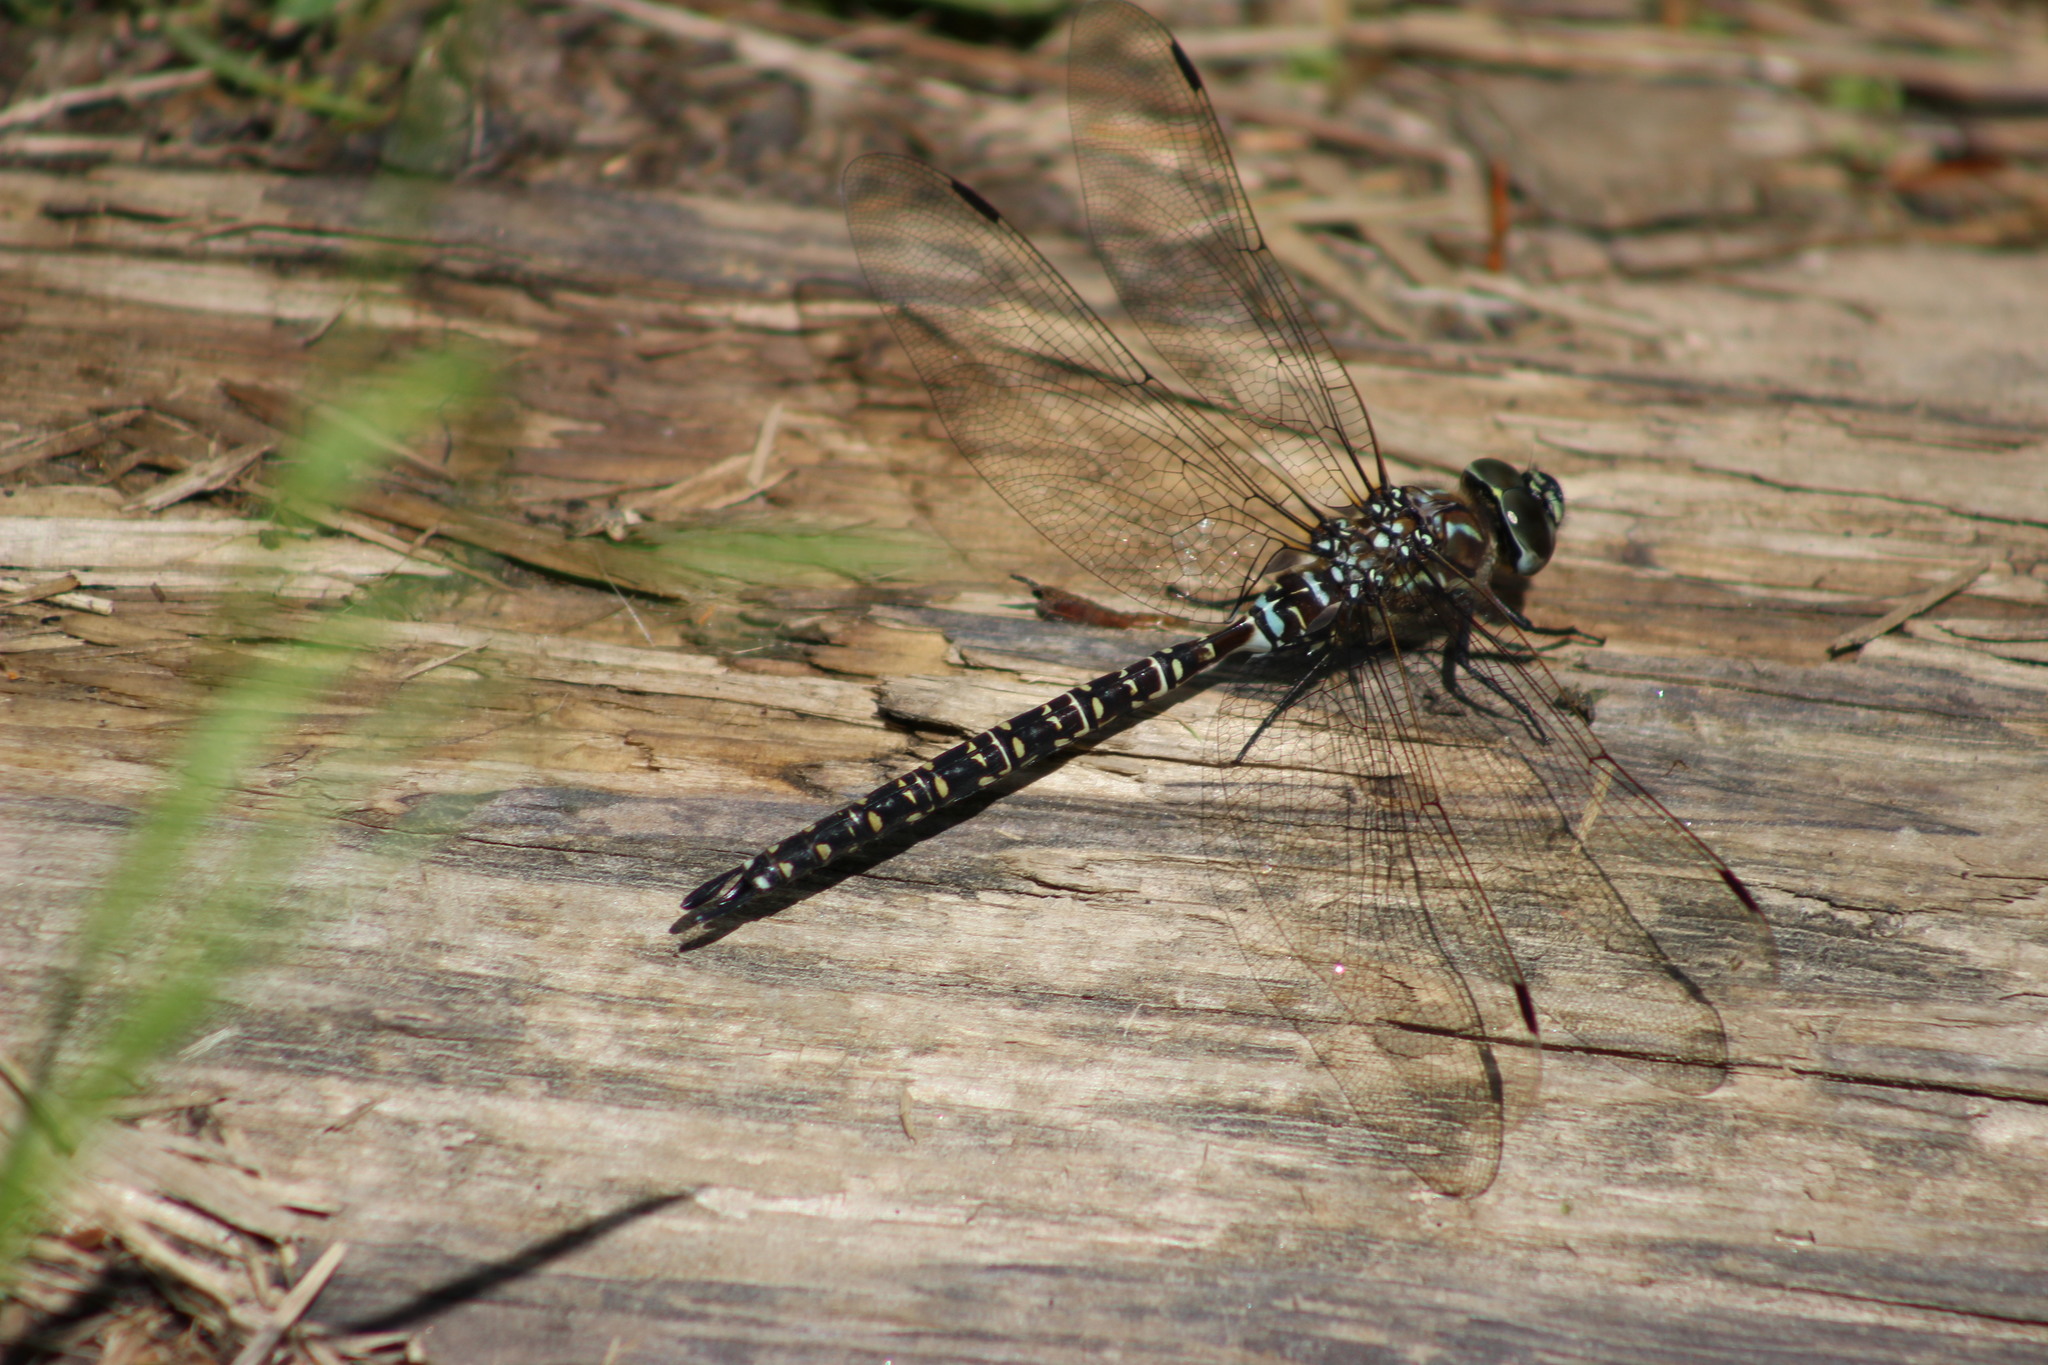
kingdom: Animalia
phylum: Arthropoda
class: Insecta
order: Odonata
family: Aeshnidae
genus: Aeshna
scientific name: Aeshna subarctica
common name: Subarctic darner
